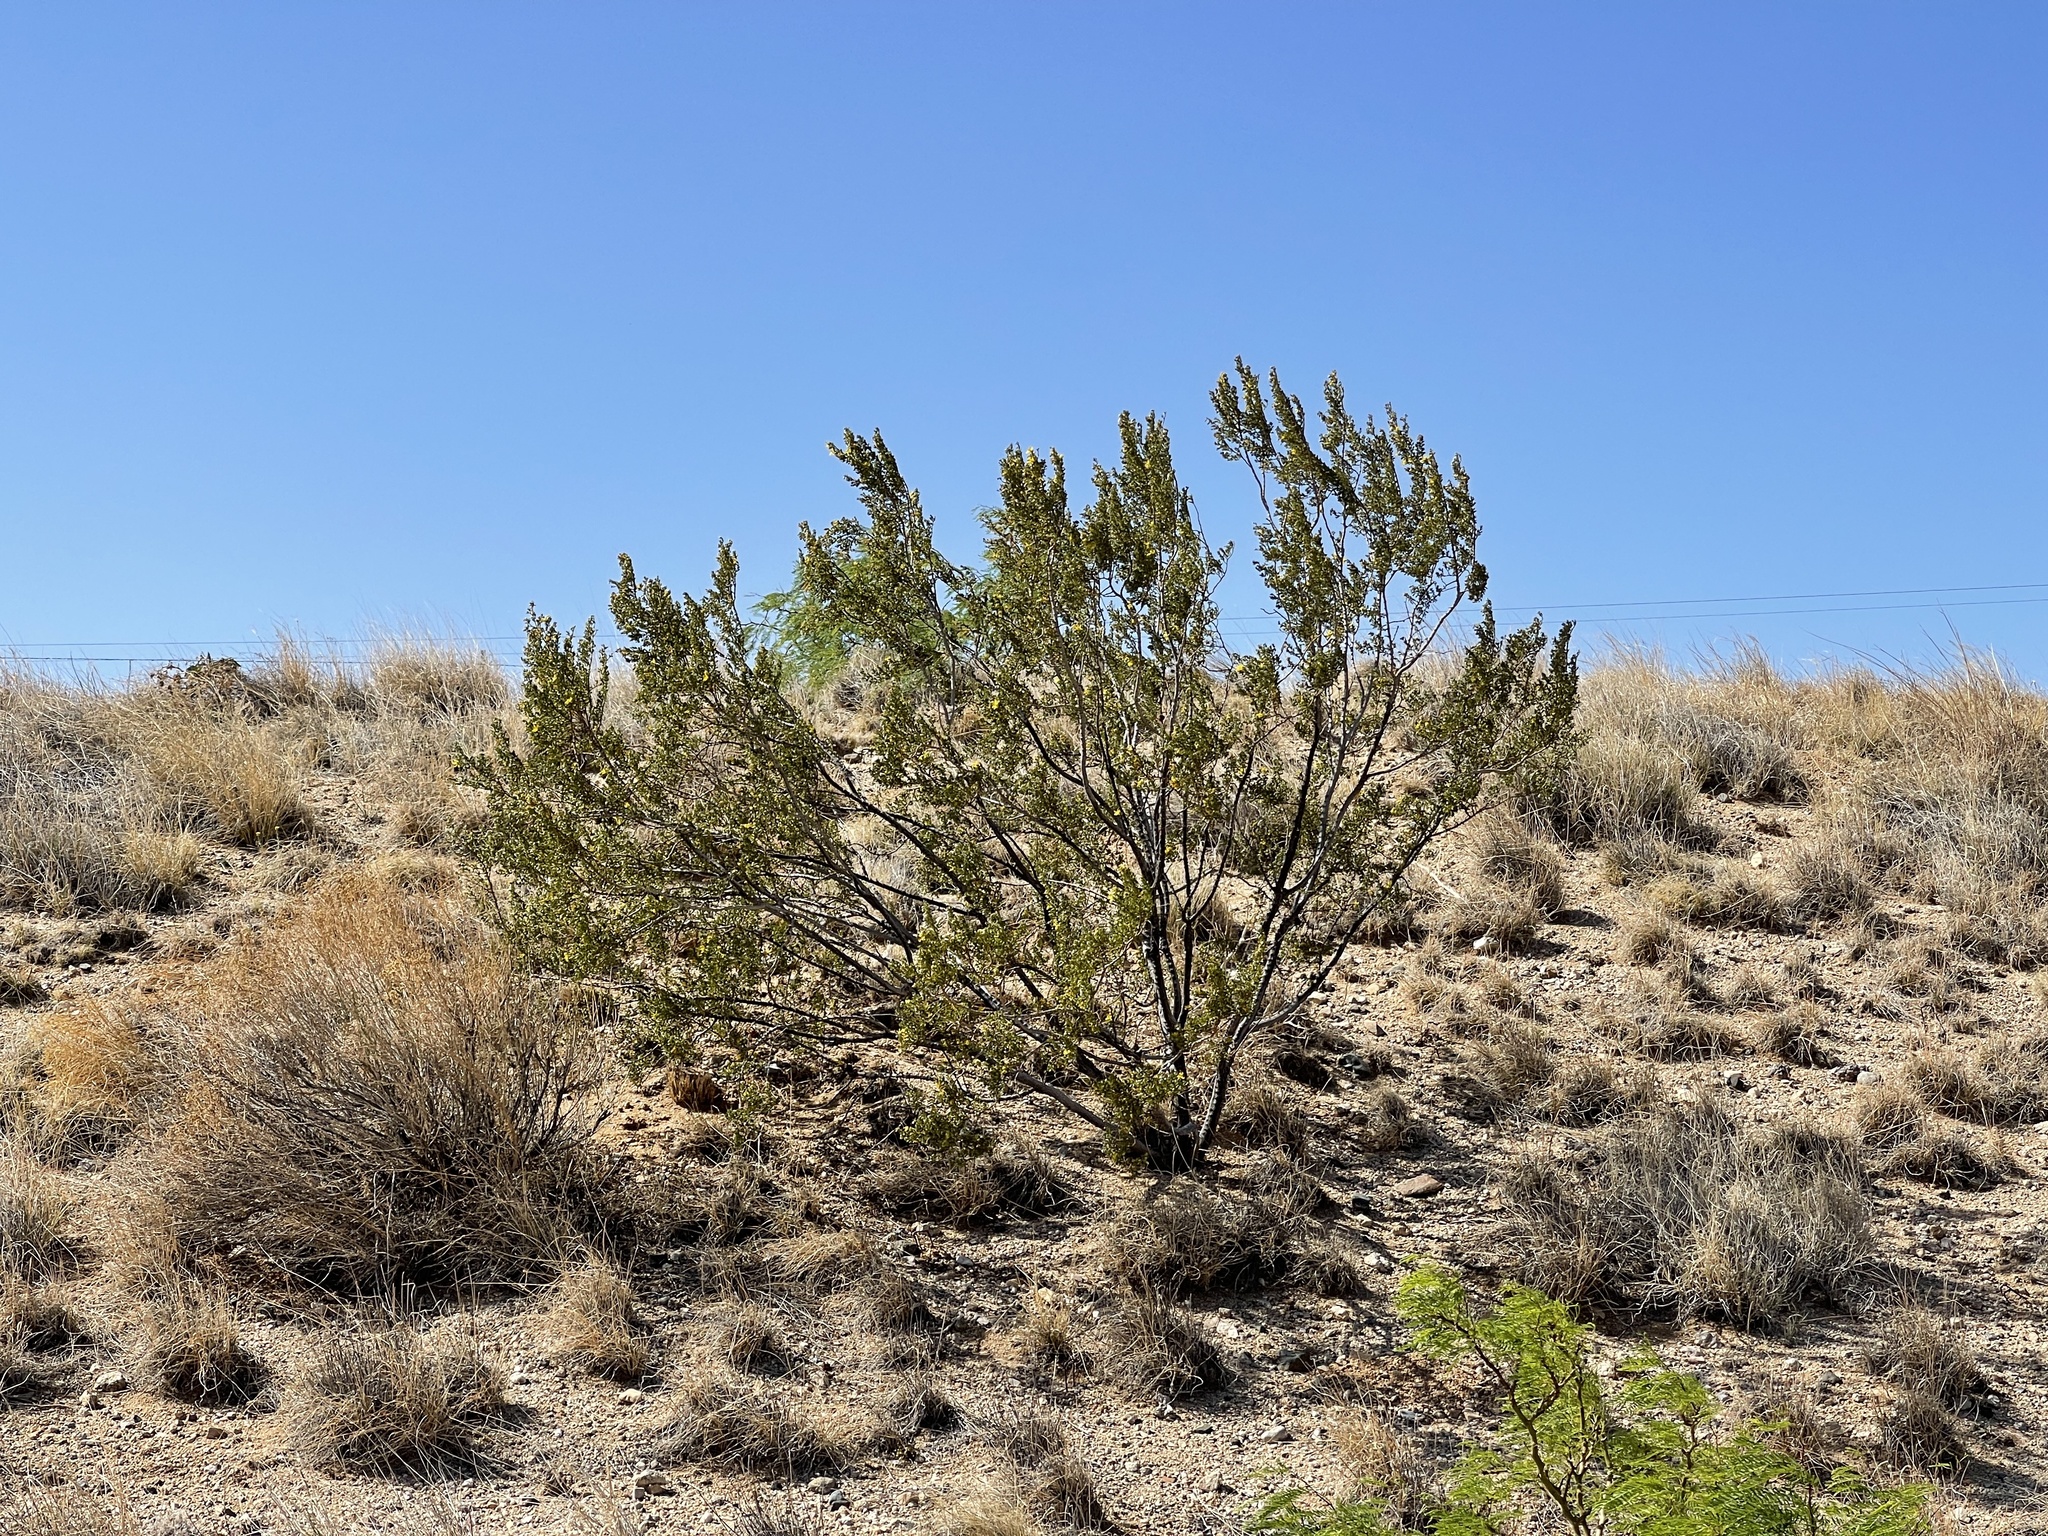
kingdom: Plantae
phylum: Tracheophyta
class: Magnoliopsida
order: Zygophyllales
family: Zygophyllaceae
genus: Larrea
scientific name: Larrea tridentata
